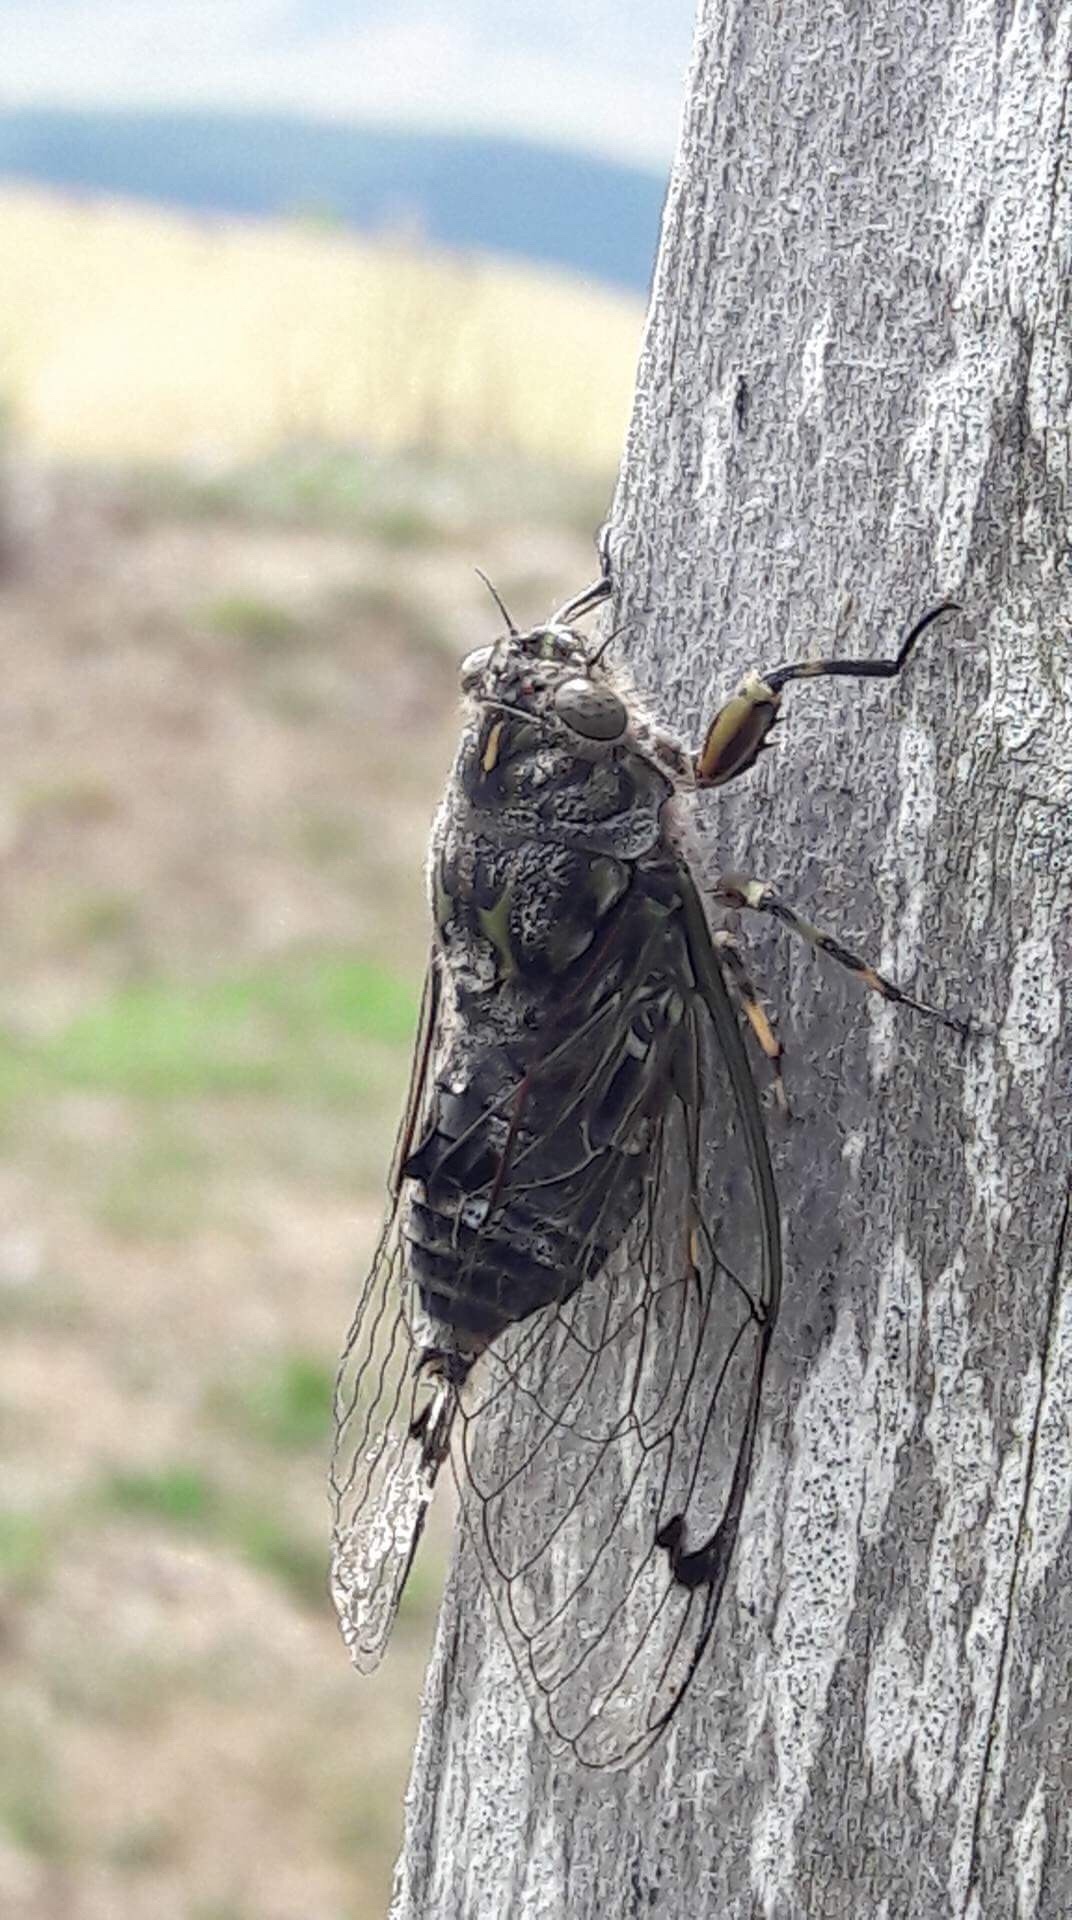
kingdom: Animalia
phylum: Arthropoda
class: Insecta
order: Hemiptera
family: Cicadidae
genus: Amphipsalta
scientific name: Amphipsalta cingulata
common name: Clapping cicada
